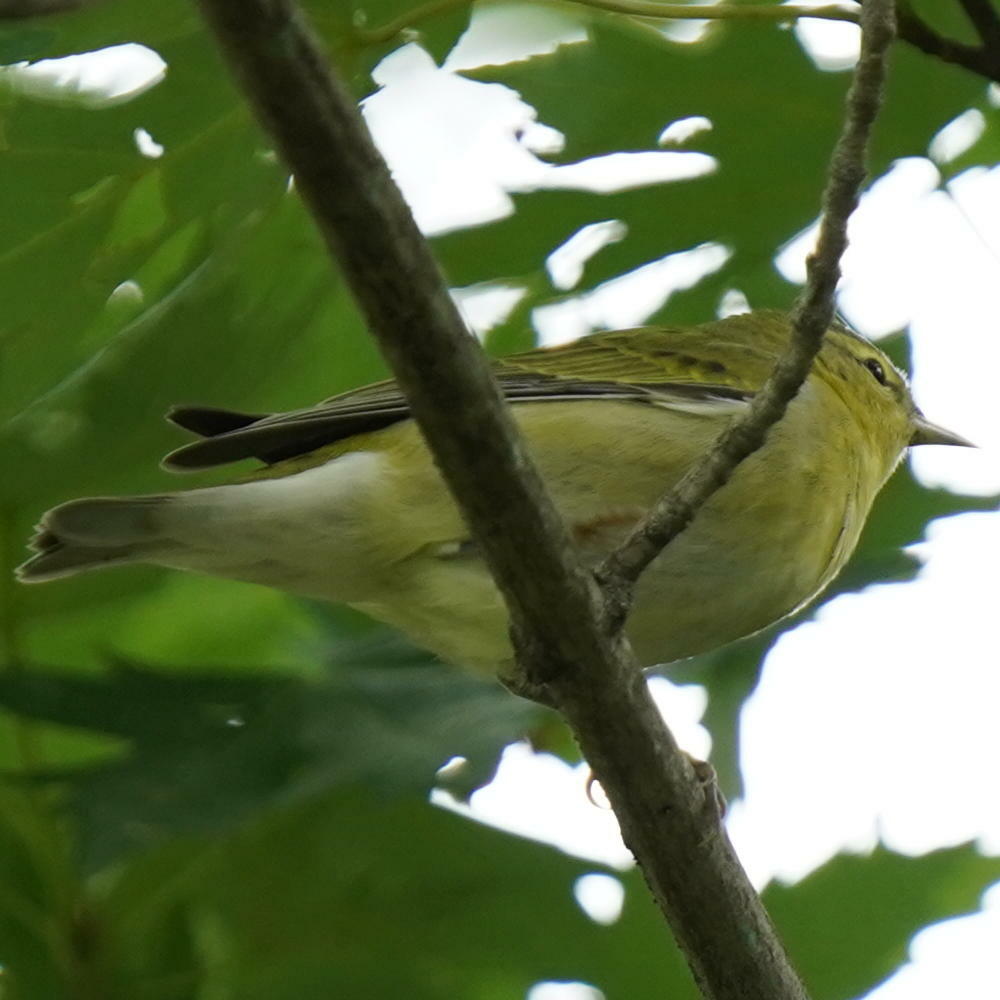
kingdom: Animalia
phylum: Chordata
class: Aves
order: Passeriformes
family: Parulidae
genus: Leiothlypis
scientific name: Leiothlypis peregrina
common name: Tennessee warbler
